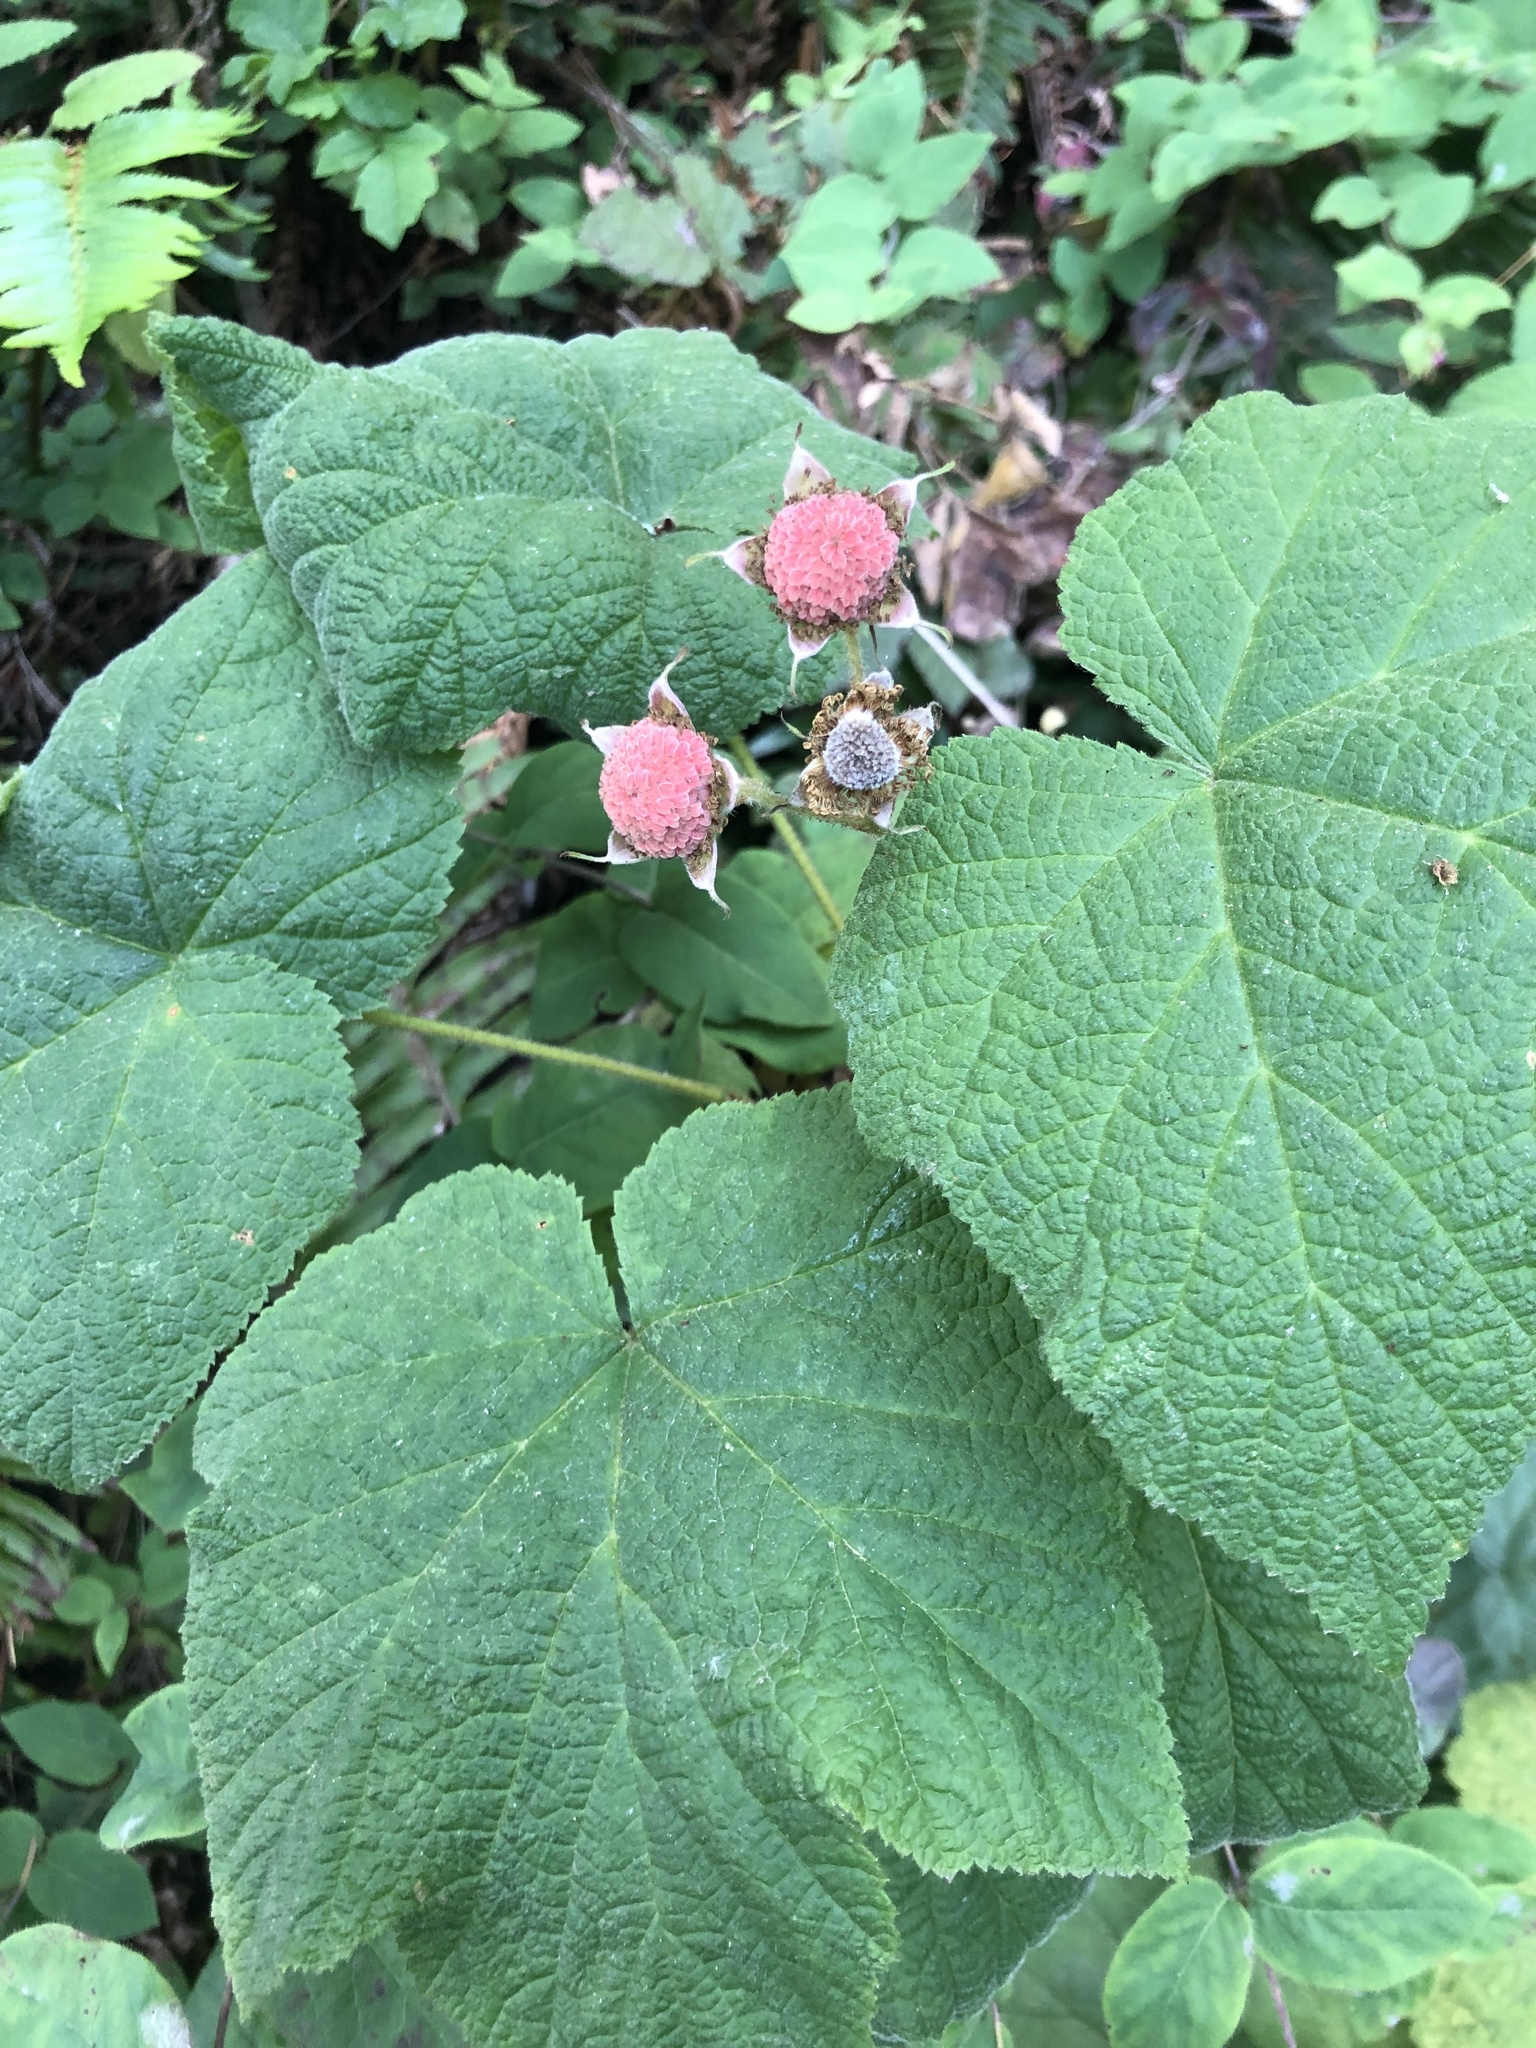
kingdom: Plantae
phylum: Tracheophyta
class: Magnoliopsida
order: Rosales
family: Rosaceae
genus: Rubus
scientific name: Rubus parviflorus
